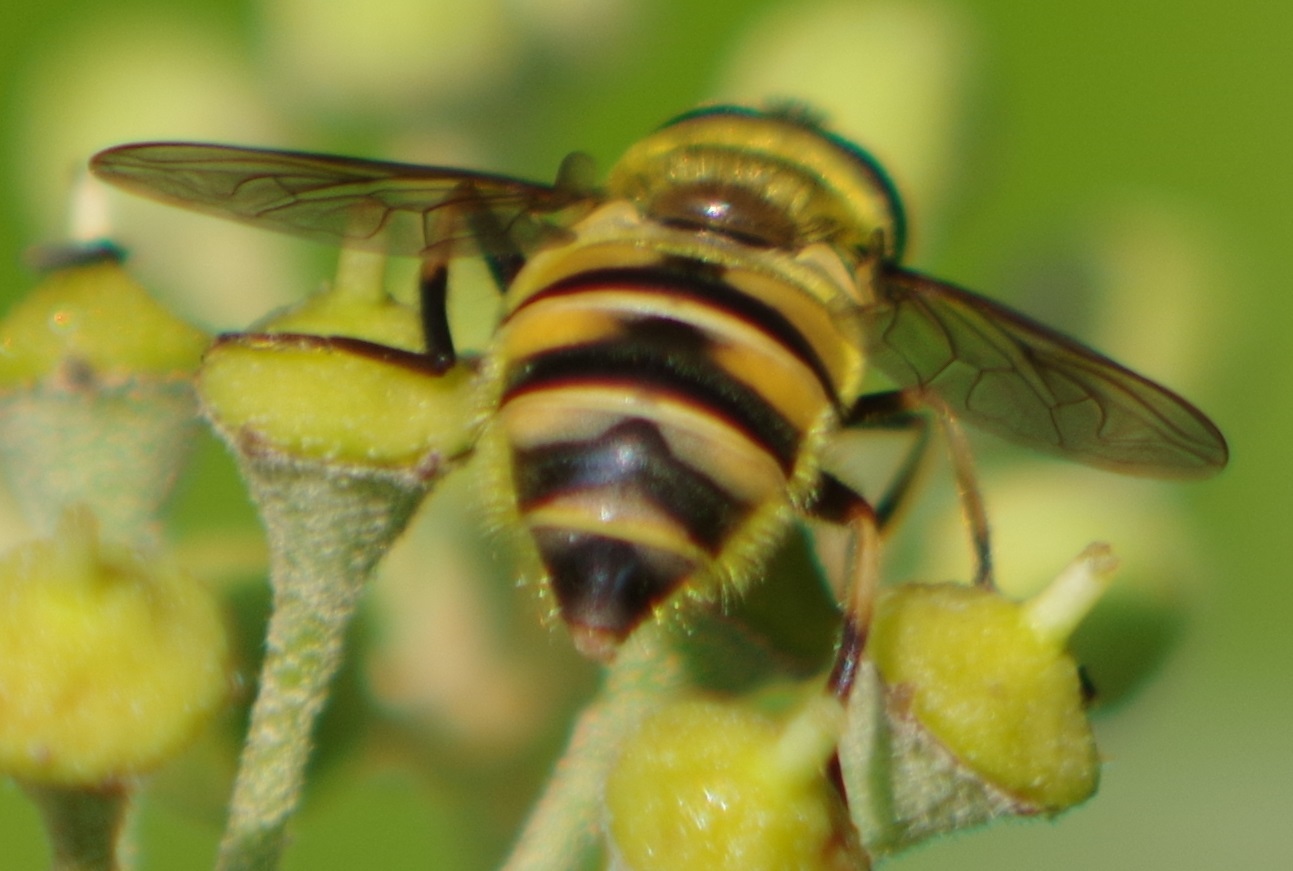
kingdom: Animalia
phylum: Arthropoda
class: Insecta
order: Diptera
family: Syrphidae
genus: Myathropa
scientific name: Myathropa florea
